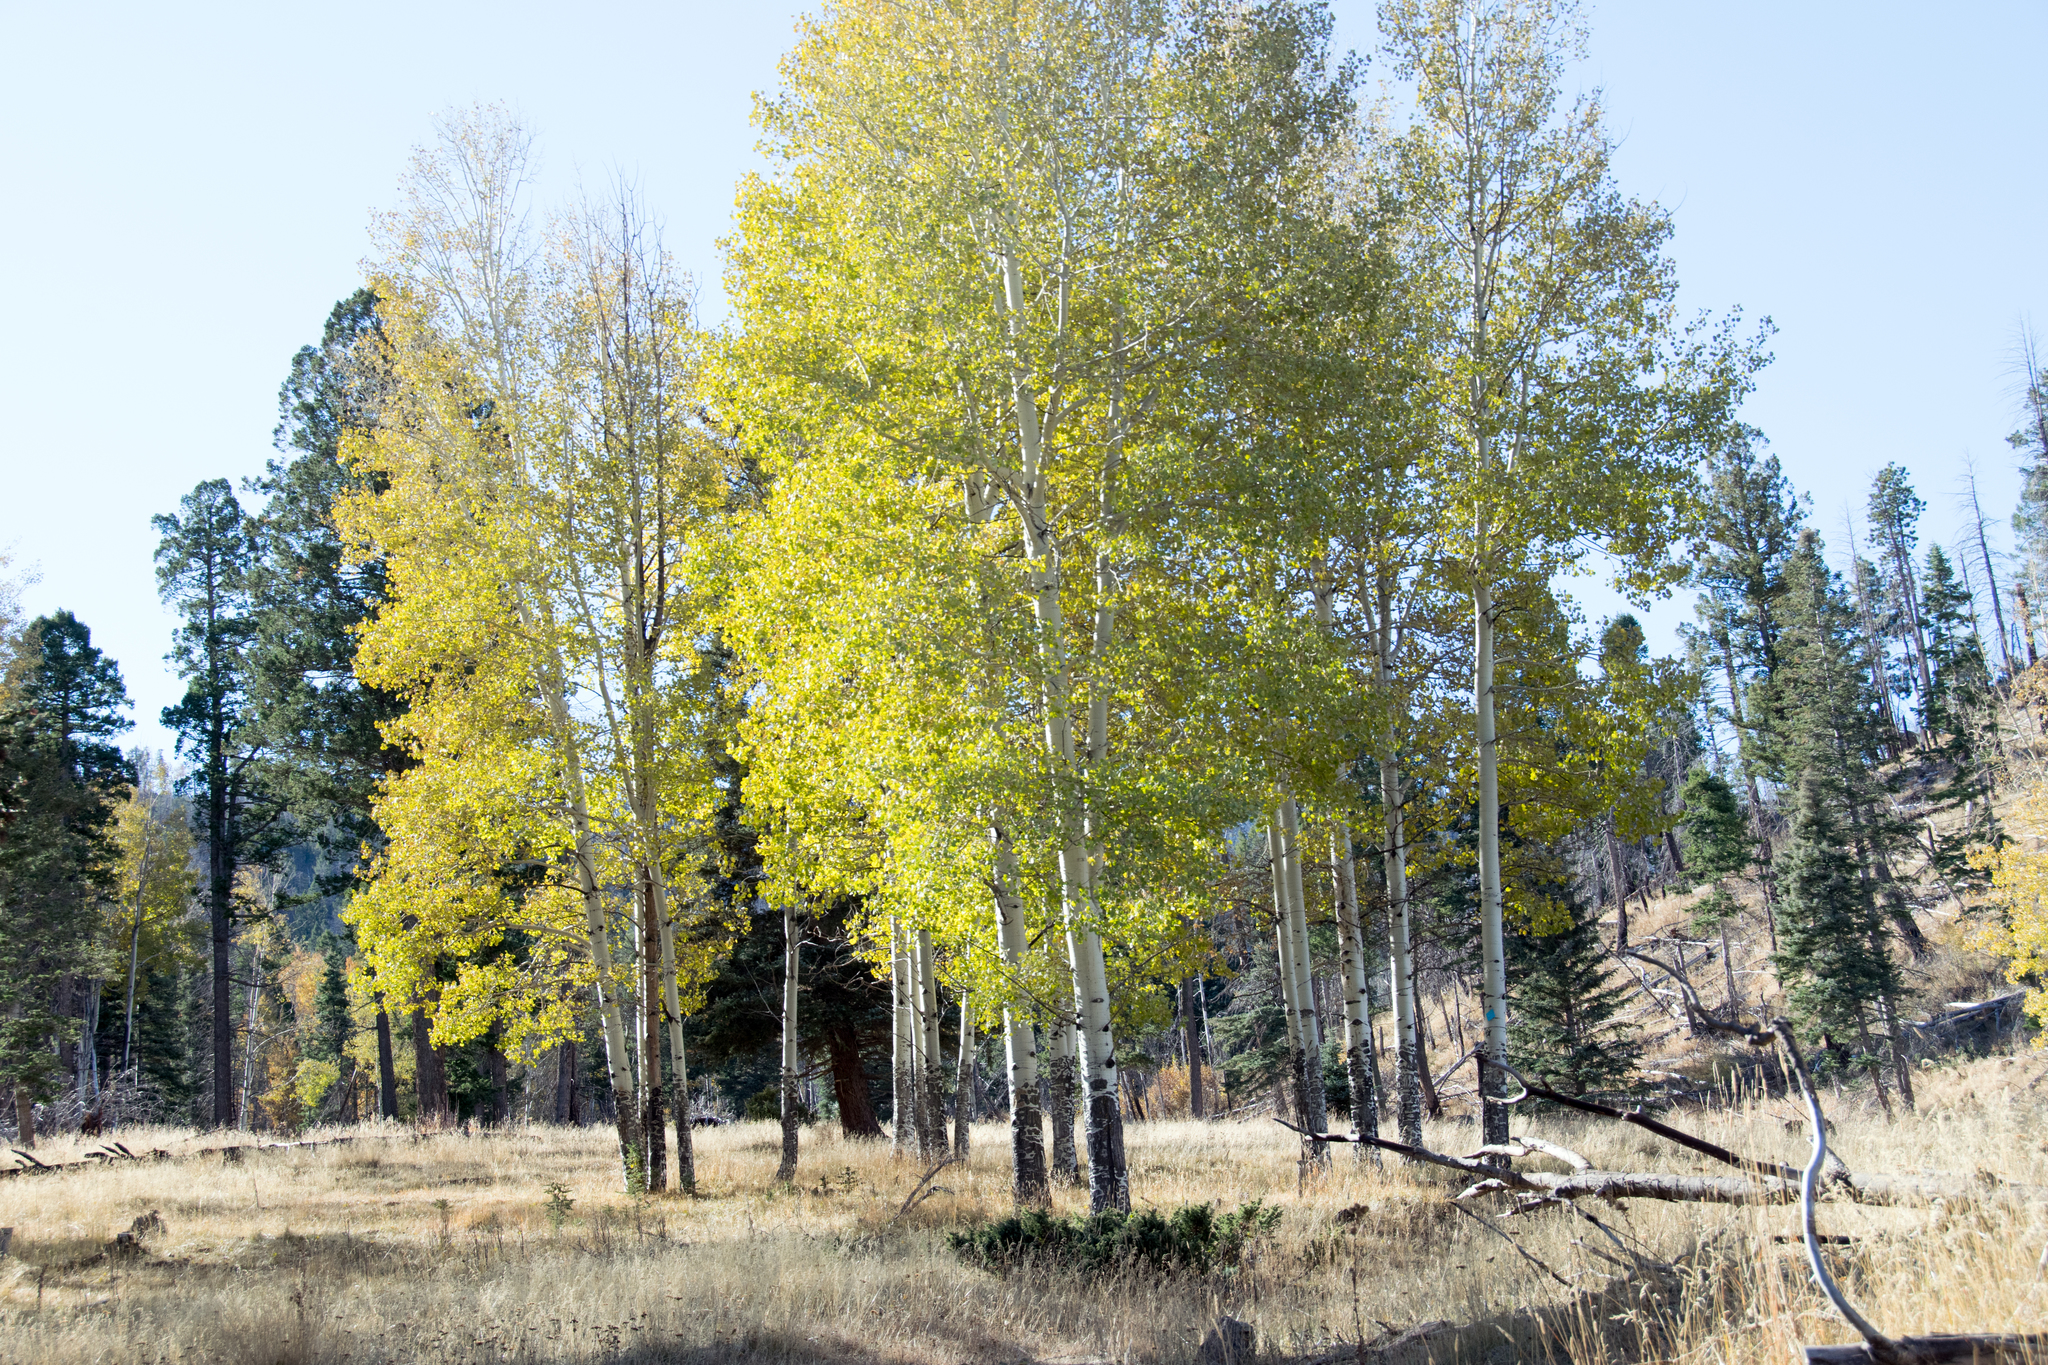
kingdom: Plantae
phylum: Tracheophyta
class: Magnoliopsida
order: Malpighiales
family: Salicaceae
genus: Populus
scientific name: Populus tremuloides
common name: Quaking aspen
